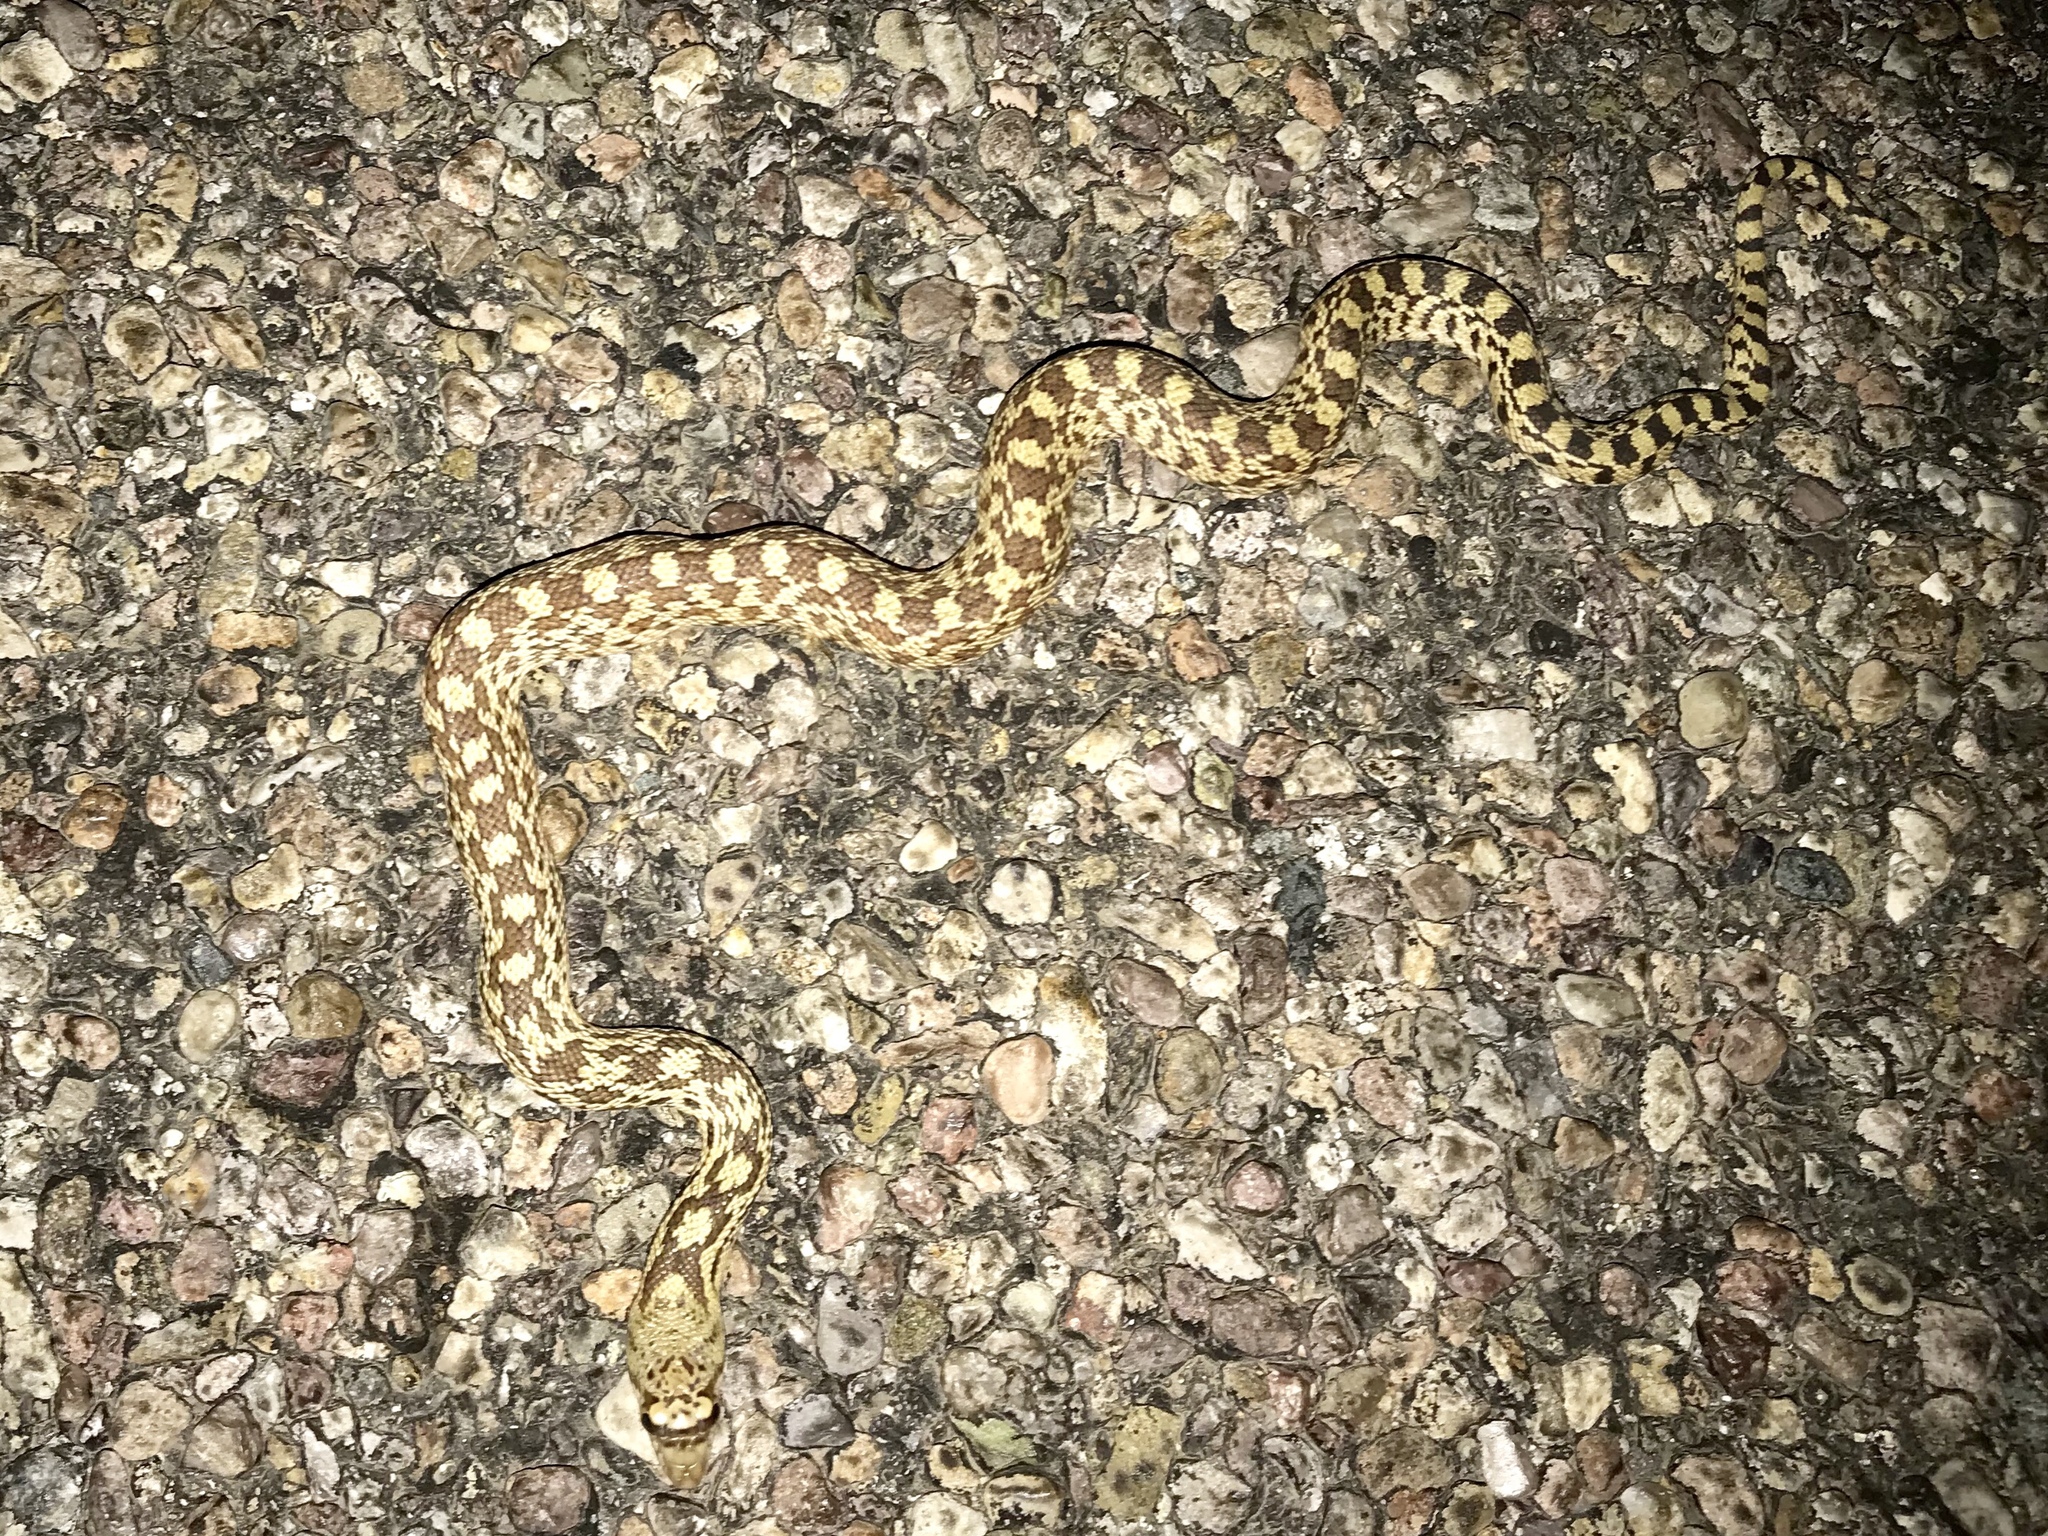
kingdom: Animalia
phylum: Chordata
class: Squamata
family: Colubridae
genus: Pituophis
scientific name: Pituophis catenifer
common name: Gopher snake
